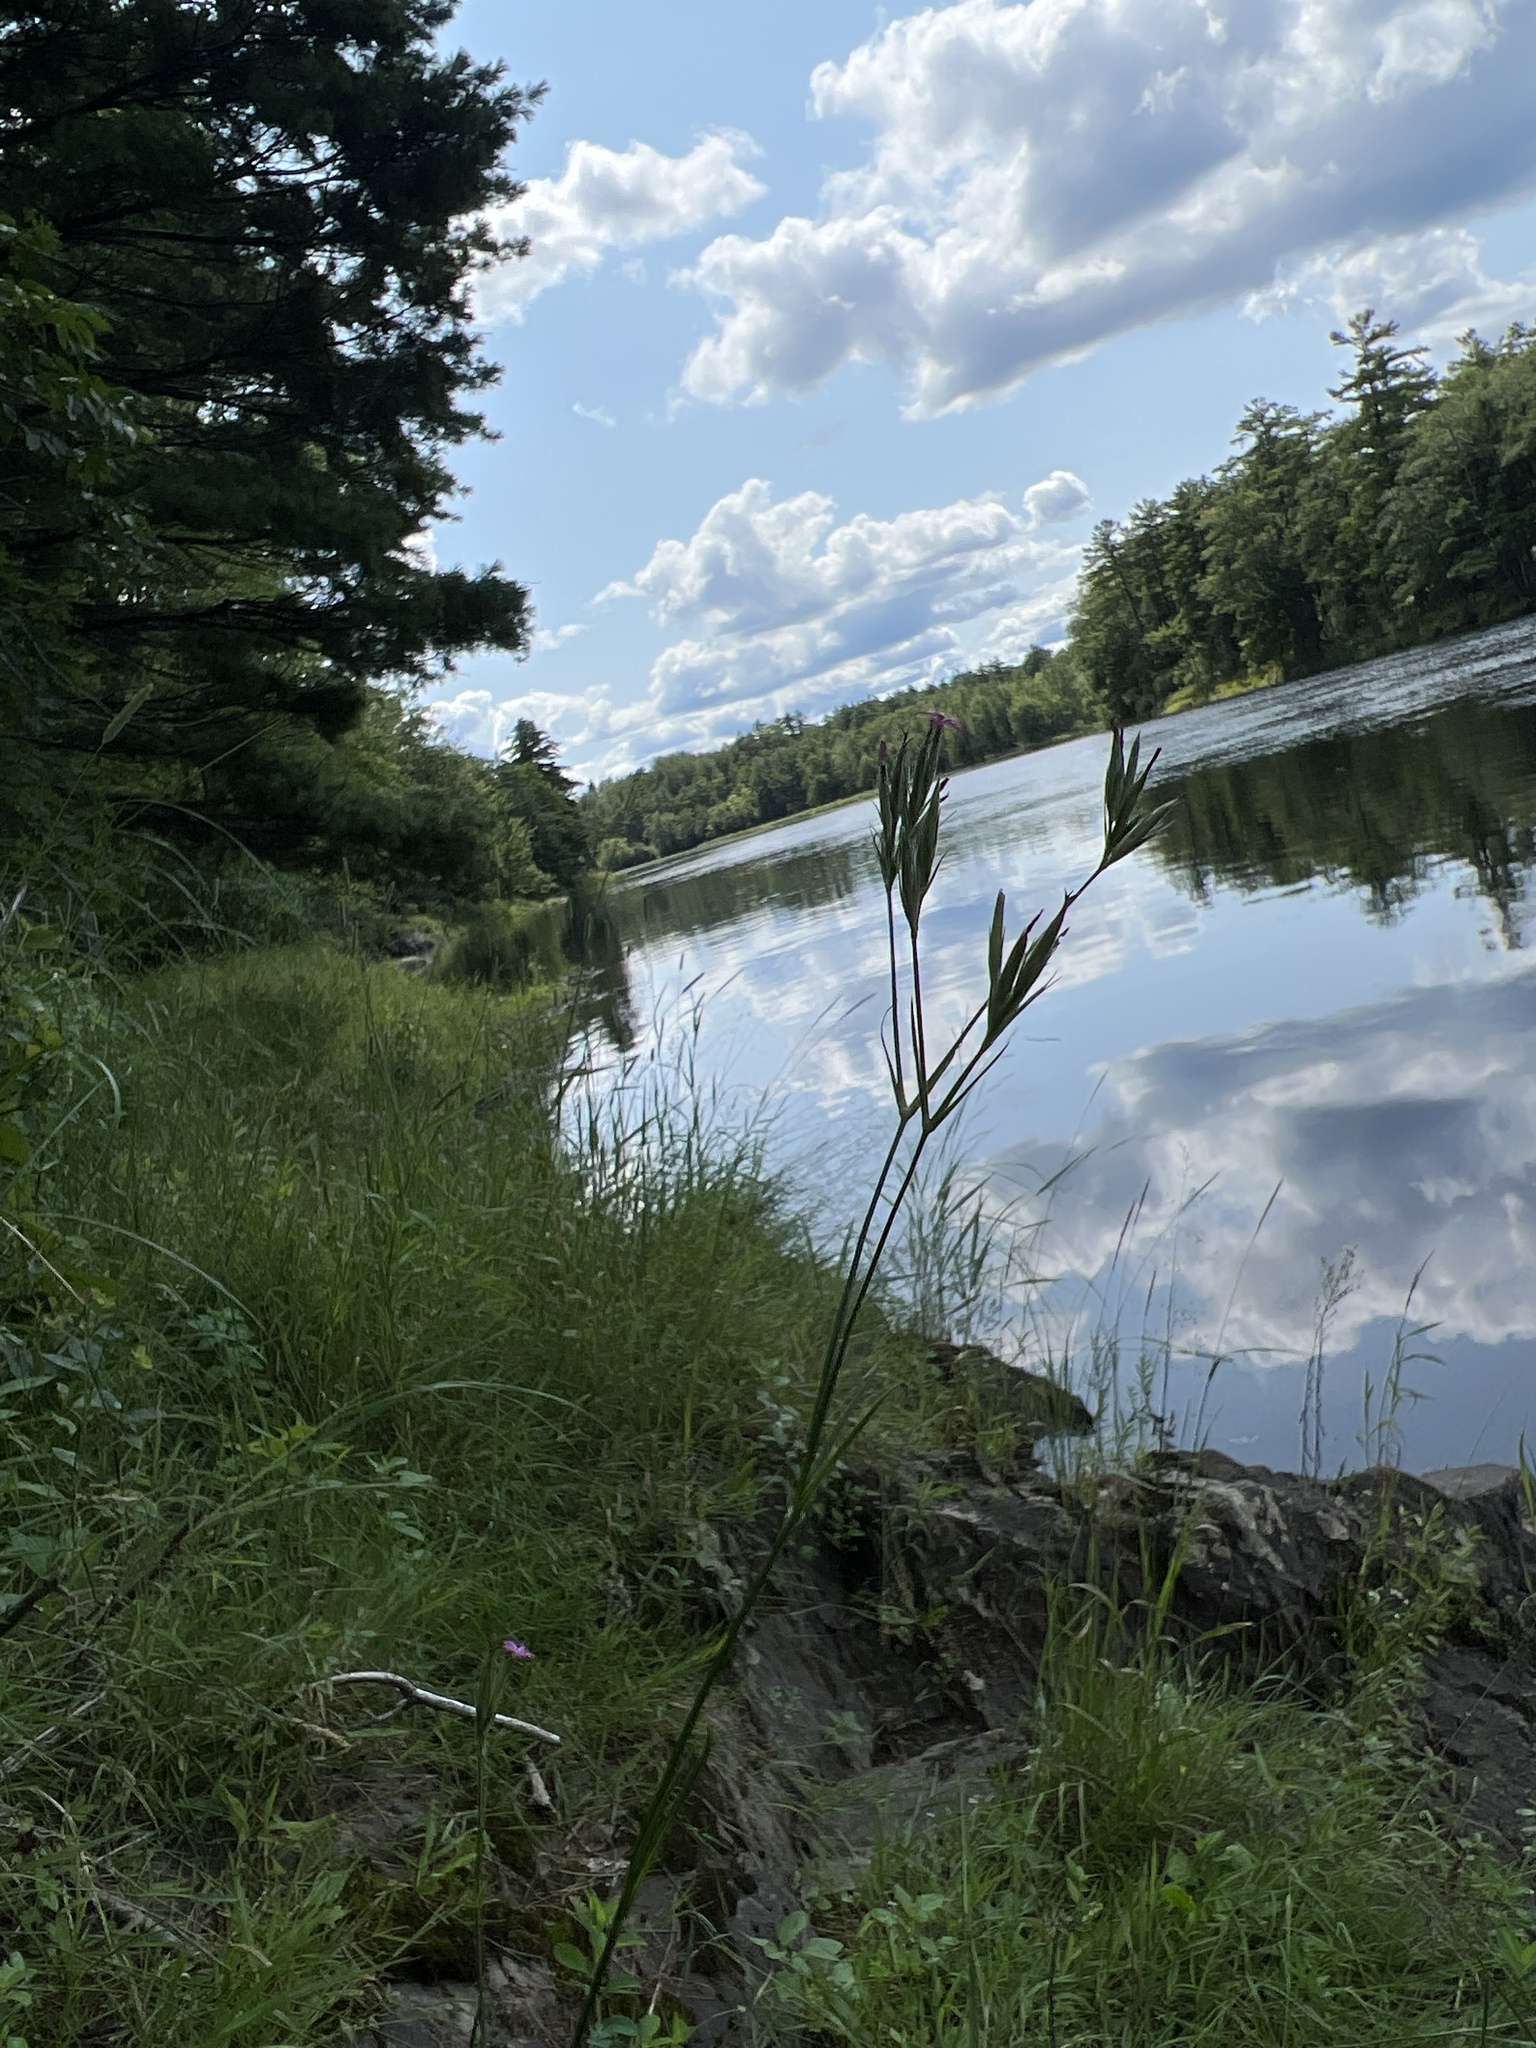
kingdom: Plantae
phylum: Tracheophyta
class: Magnoliopsida
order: Caryophyllales
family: Caryophyllaceae
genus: Dianthus
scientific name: Dianthus armeria
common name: Deptford pink
